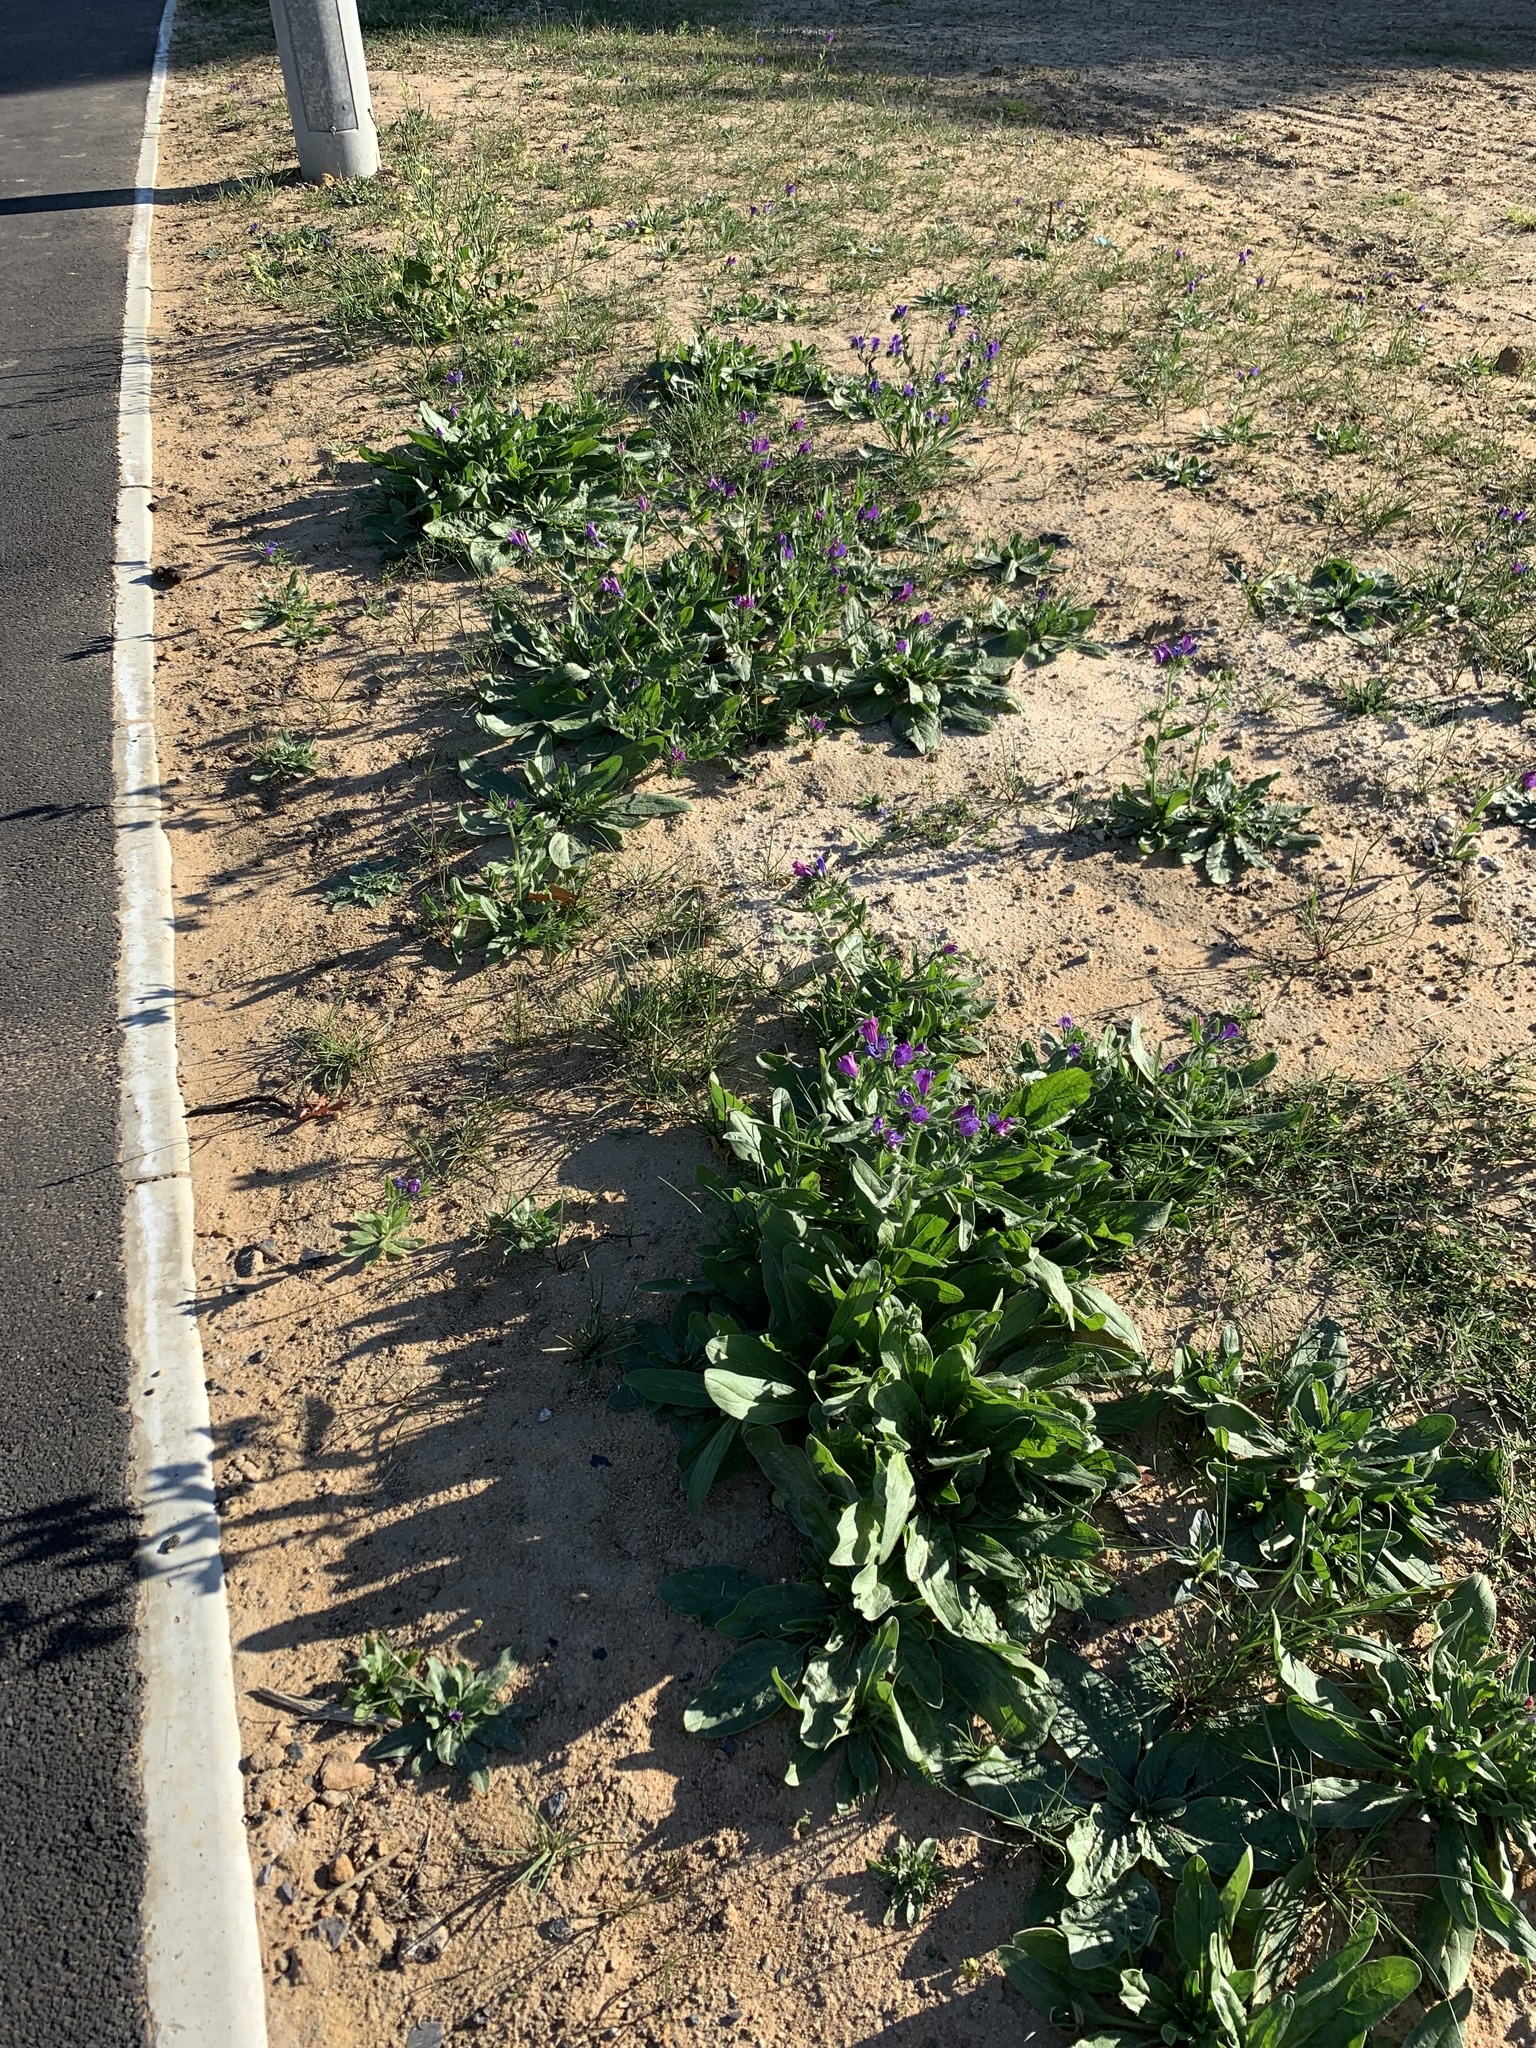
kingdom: Plantae
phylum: Tracheophyta
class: Magnoliopsida
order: Boraginales
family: Boraginaceae
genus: Echium
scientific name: Echium plantagineum
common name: Purple viper's-bugloss
